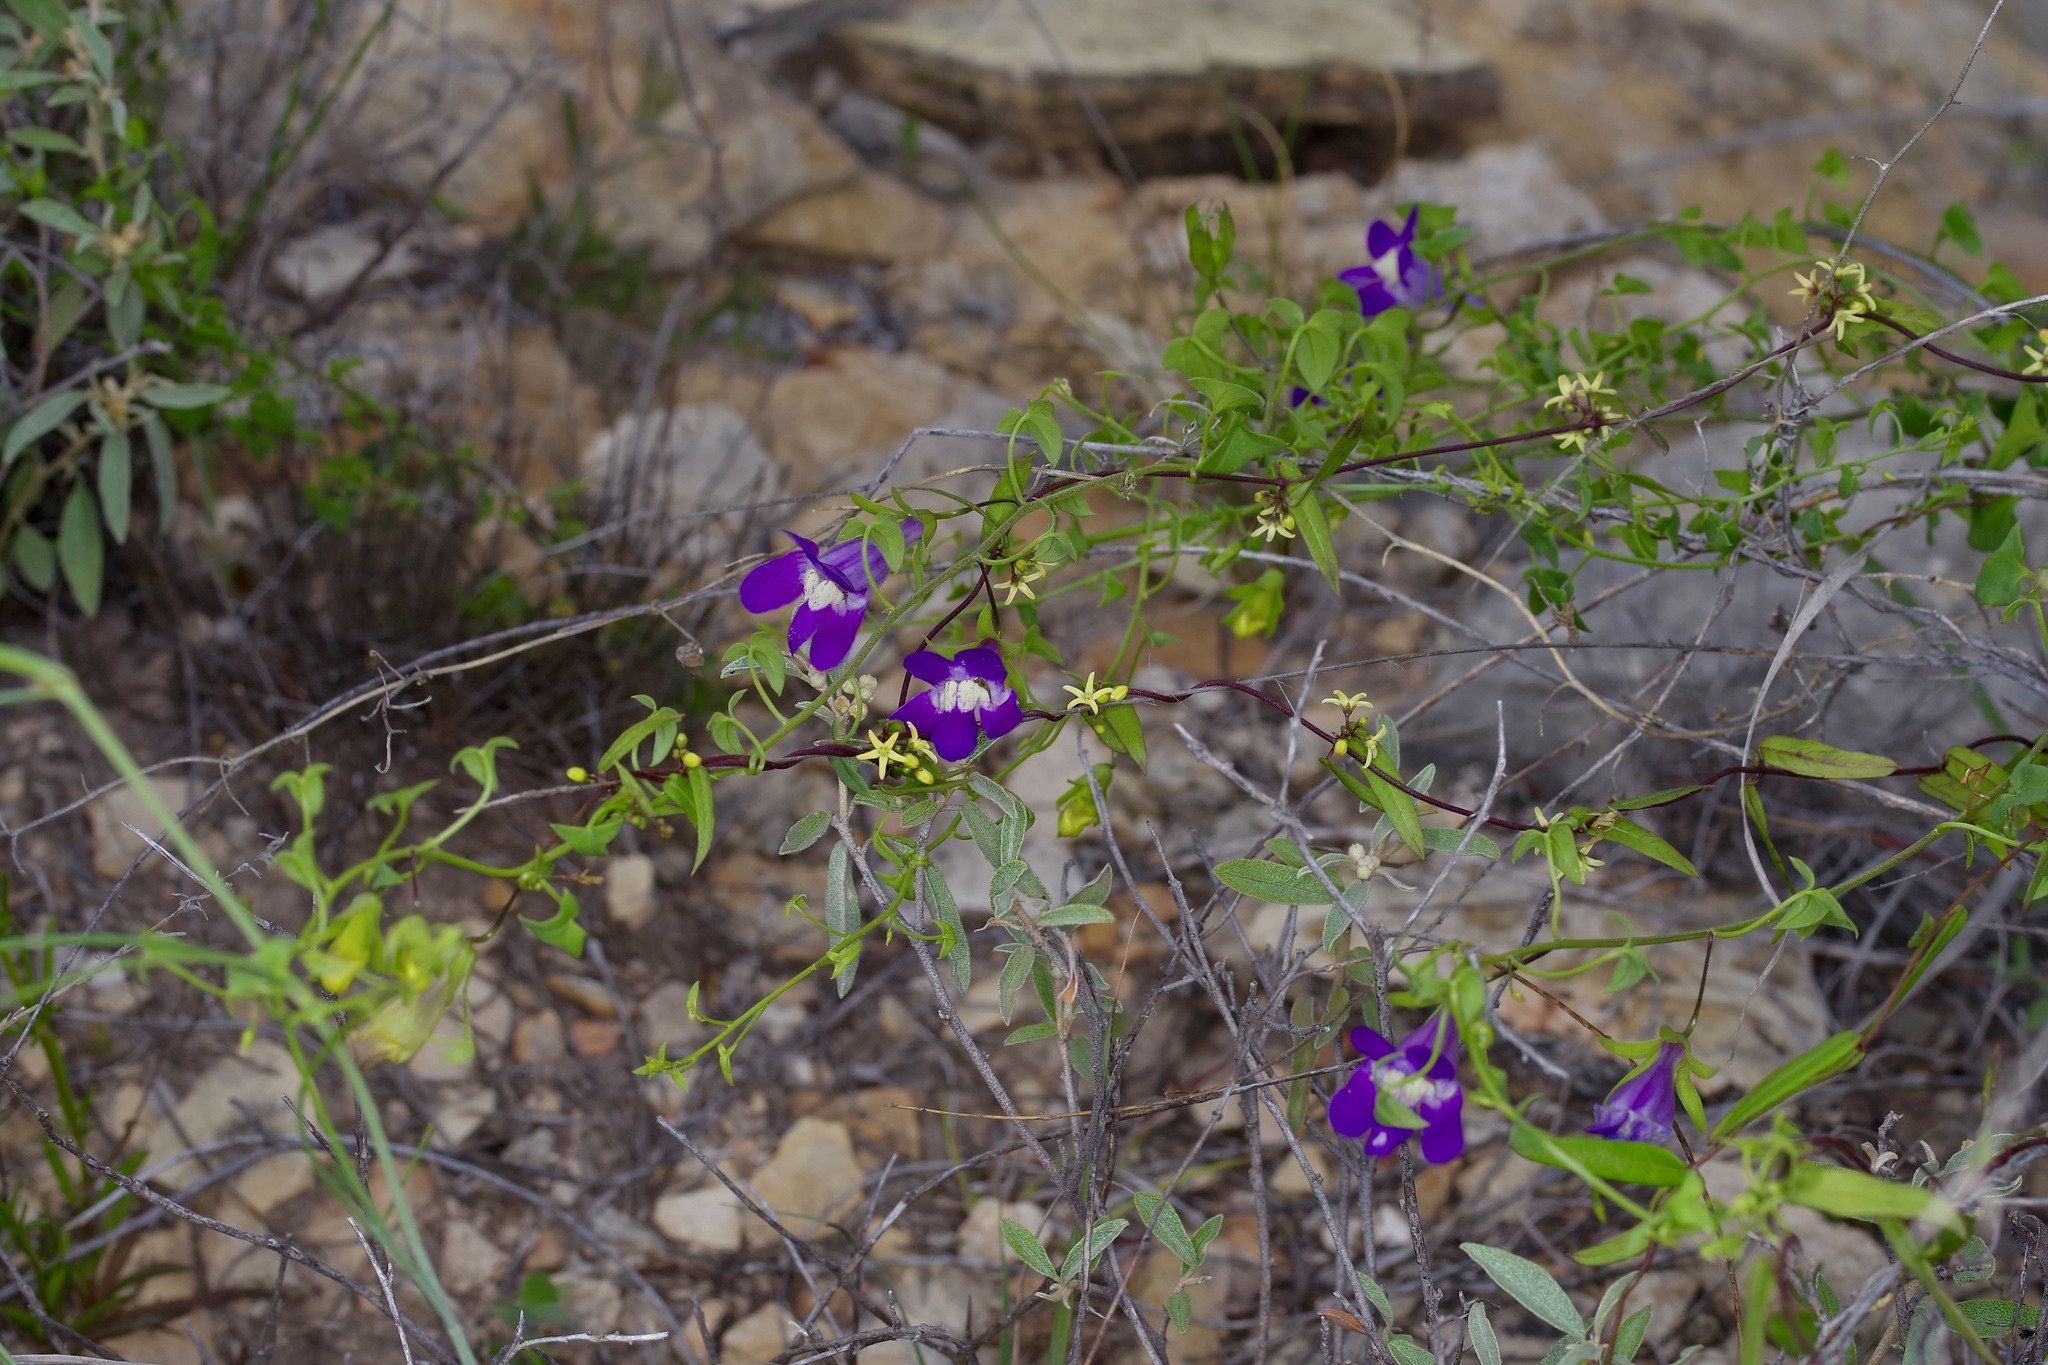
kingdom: Plantae
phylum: Tracheophyta
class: Magnoliopsida
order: Lamiales
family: Plantaginaceae
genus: Maurandella
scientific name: Maurandella antirrhiniflora
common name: Violet twining-snapdragon
